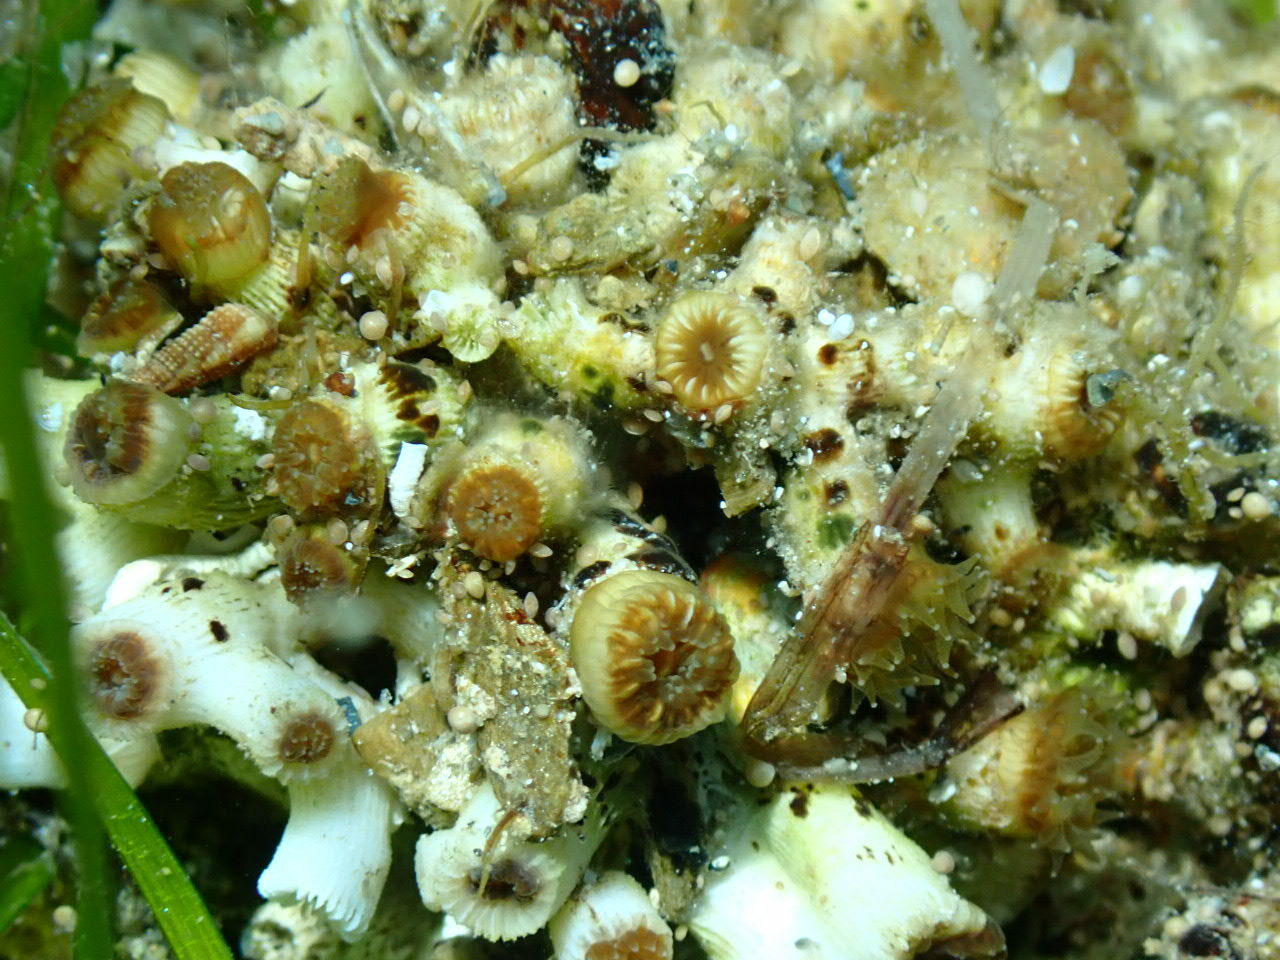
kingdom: Animalia
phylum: Cnidaria
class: Anthozoa
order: Scleractinia
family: Cladocoridae
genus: Cladocora
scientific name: Cladocora caespitosa
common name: Cladocora
